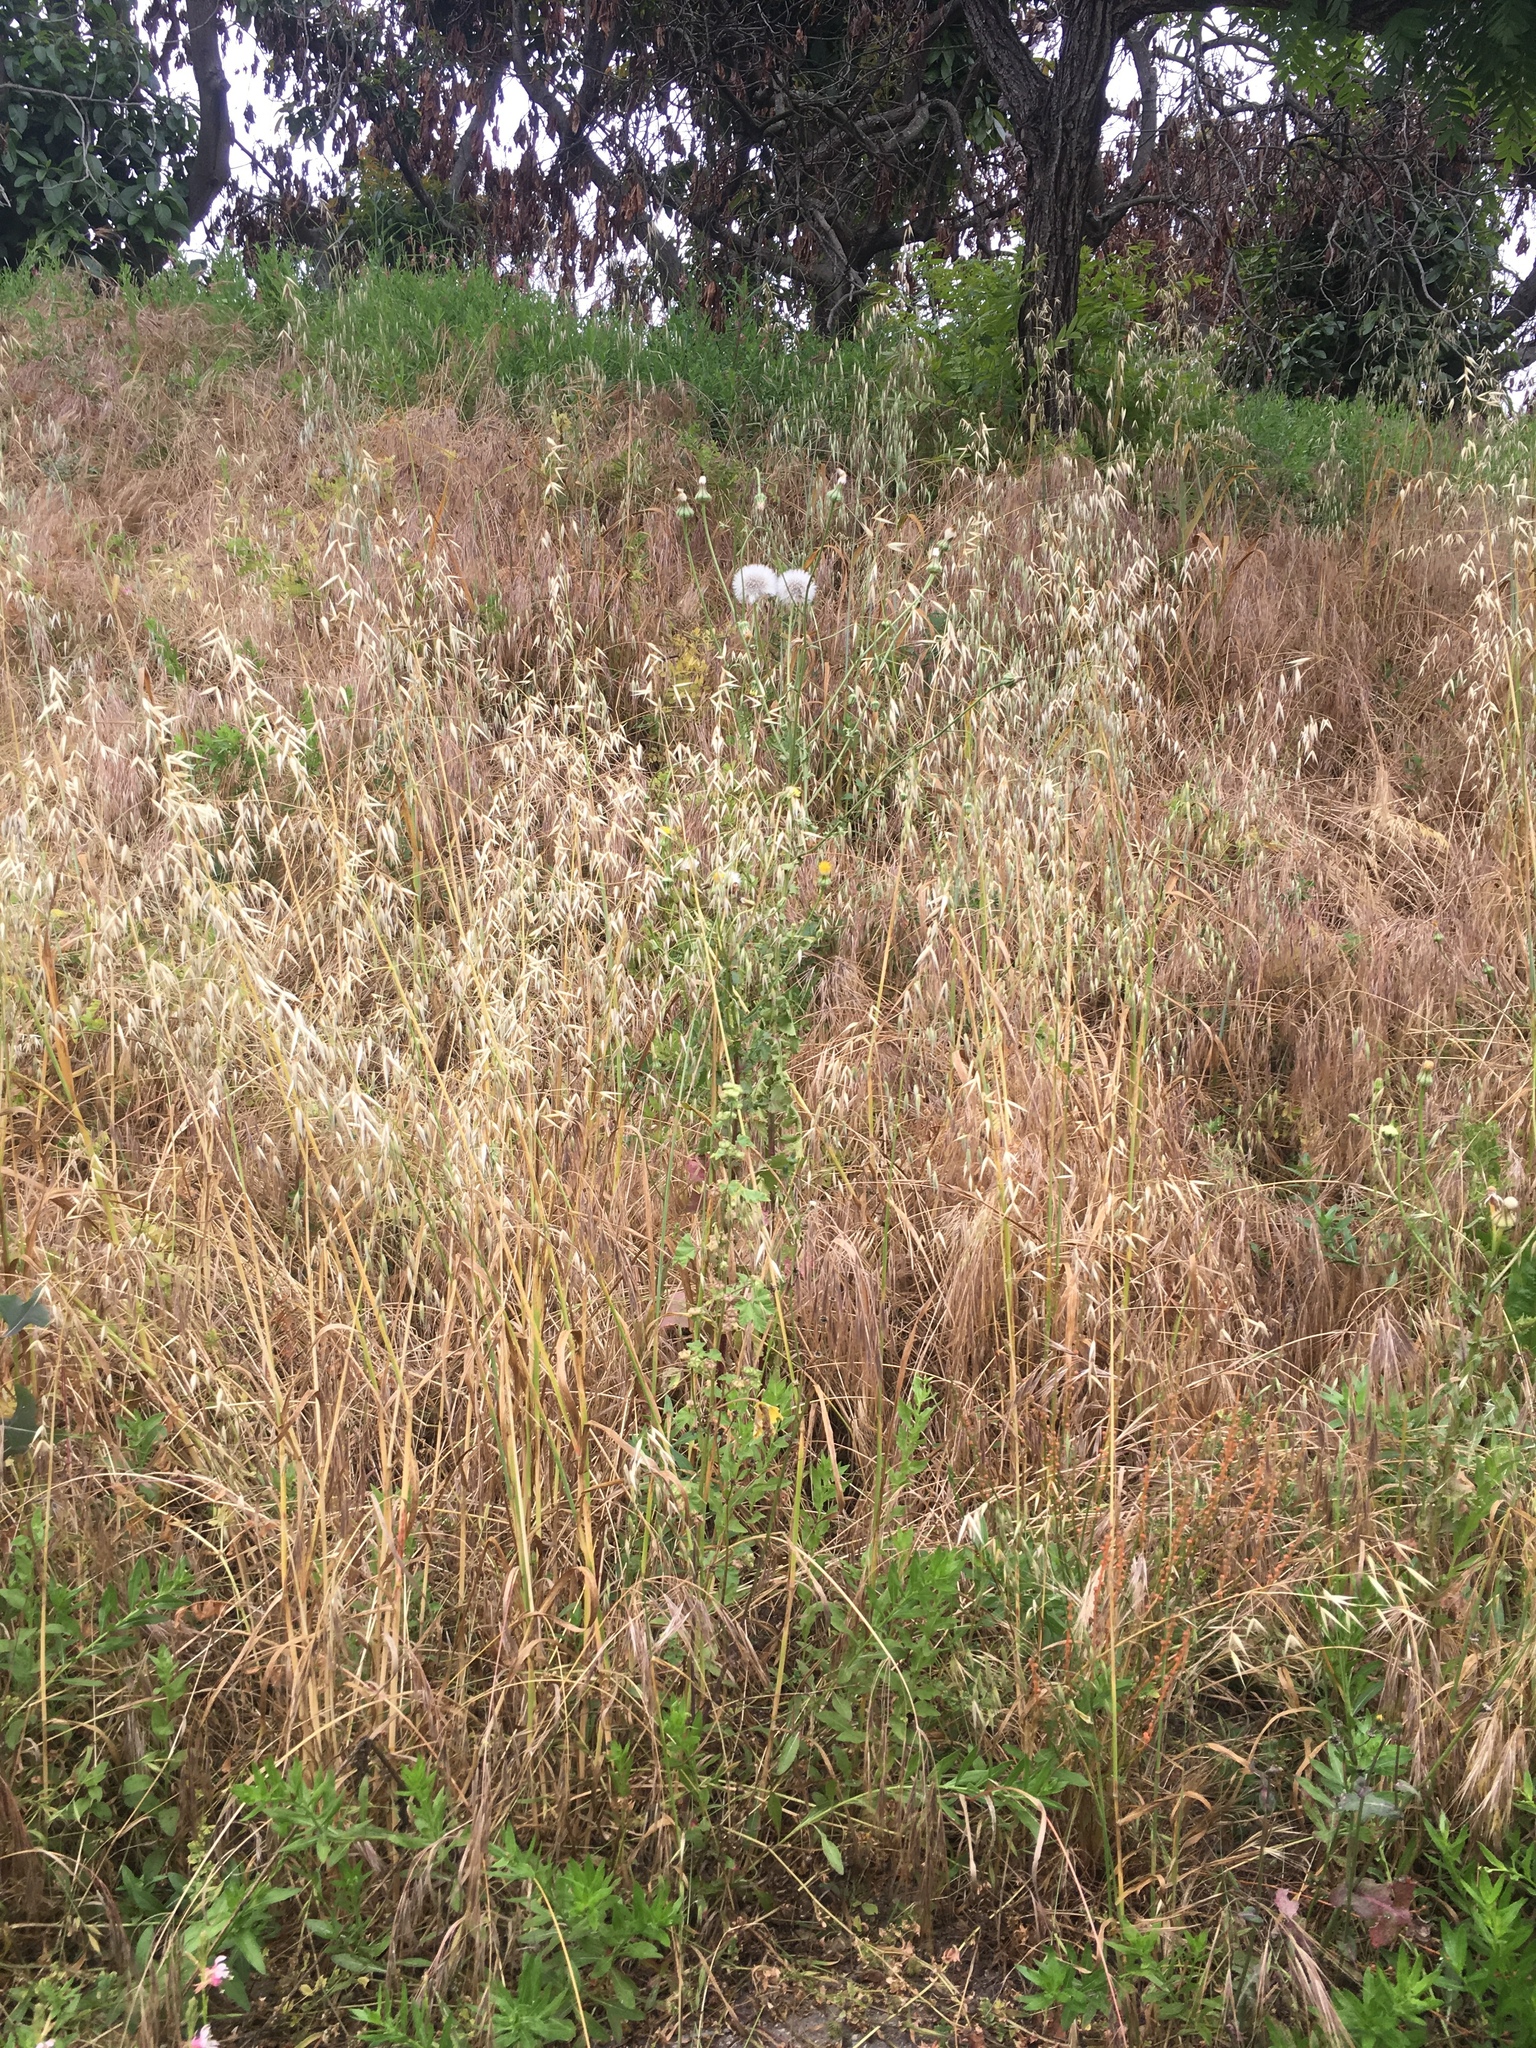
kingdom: Plantae
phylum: Tracheophyta
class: Magnoliopsida
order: Asterales
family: Asteraceae
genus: Urospermum
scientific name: Urospermum picroides
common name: False hawkbit
